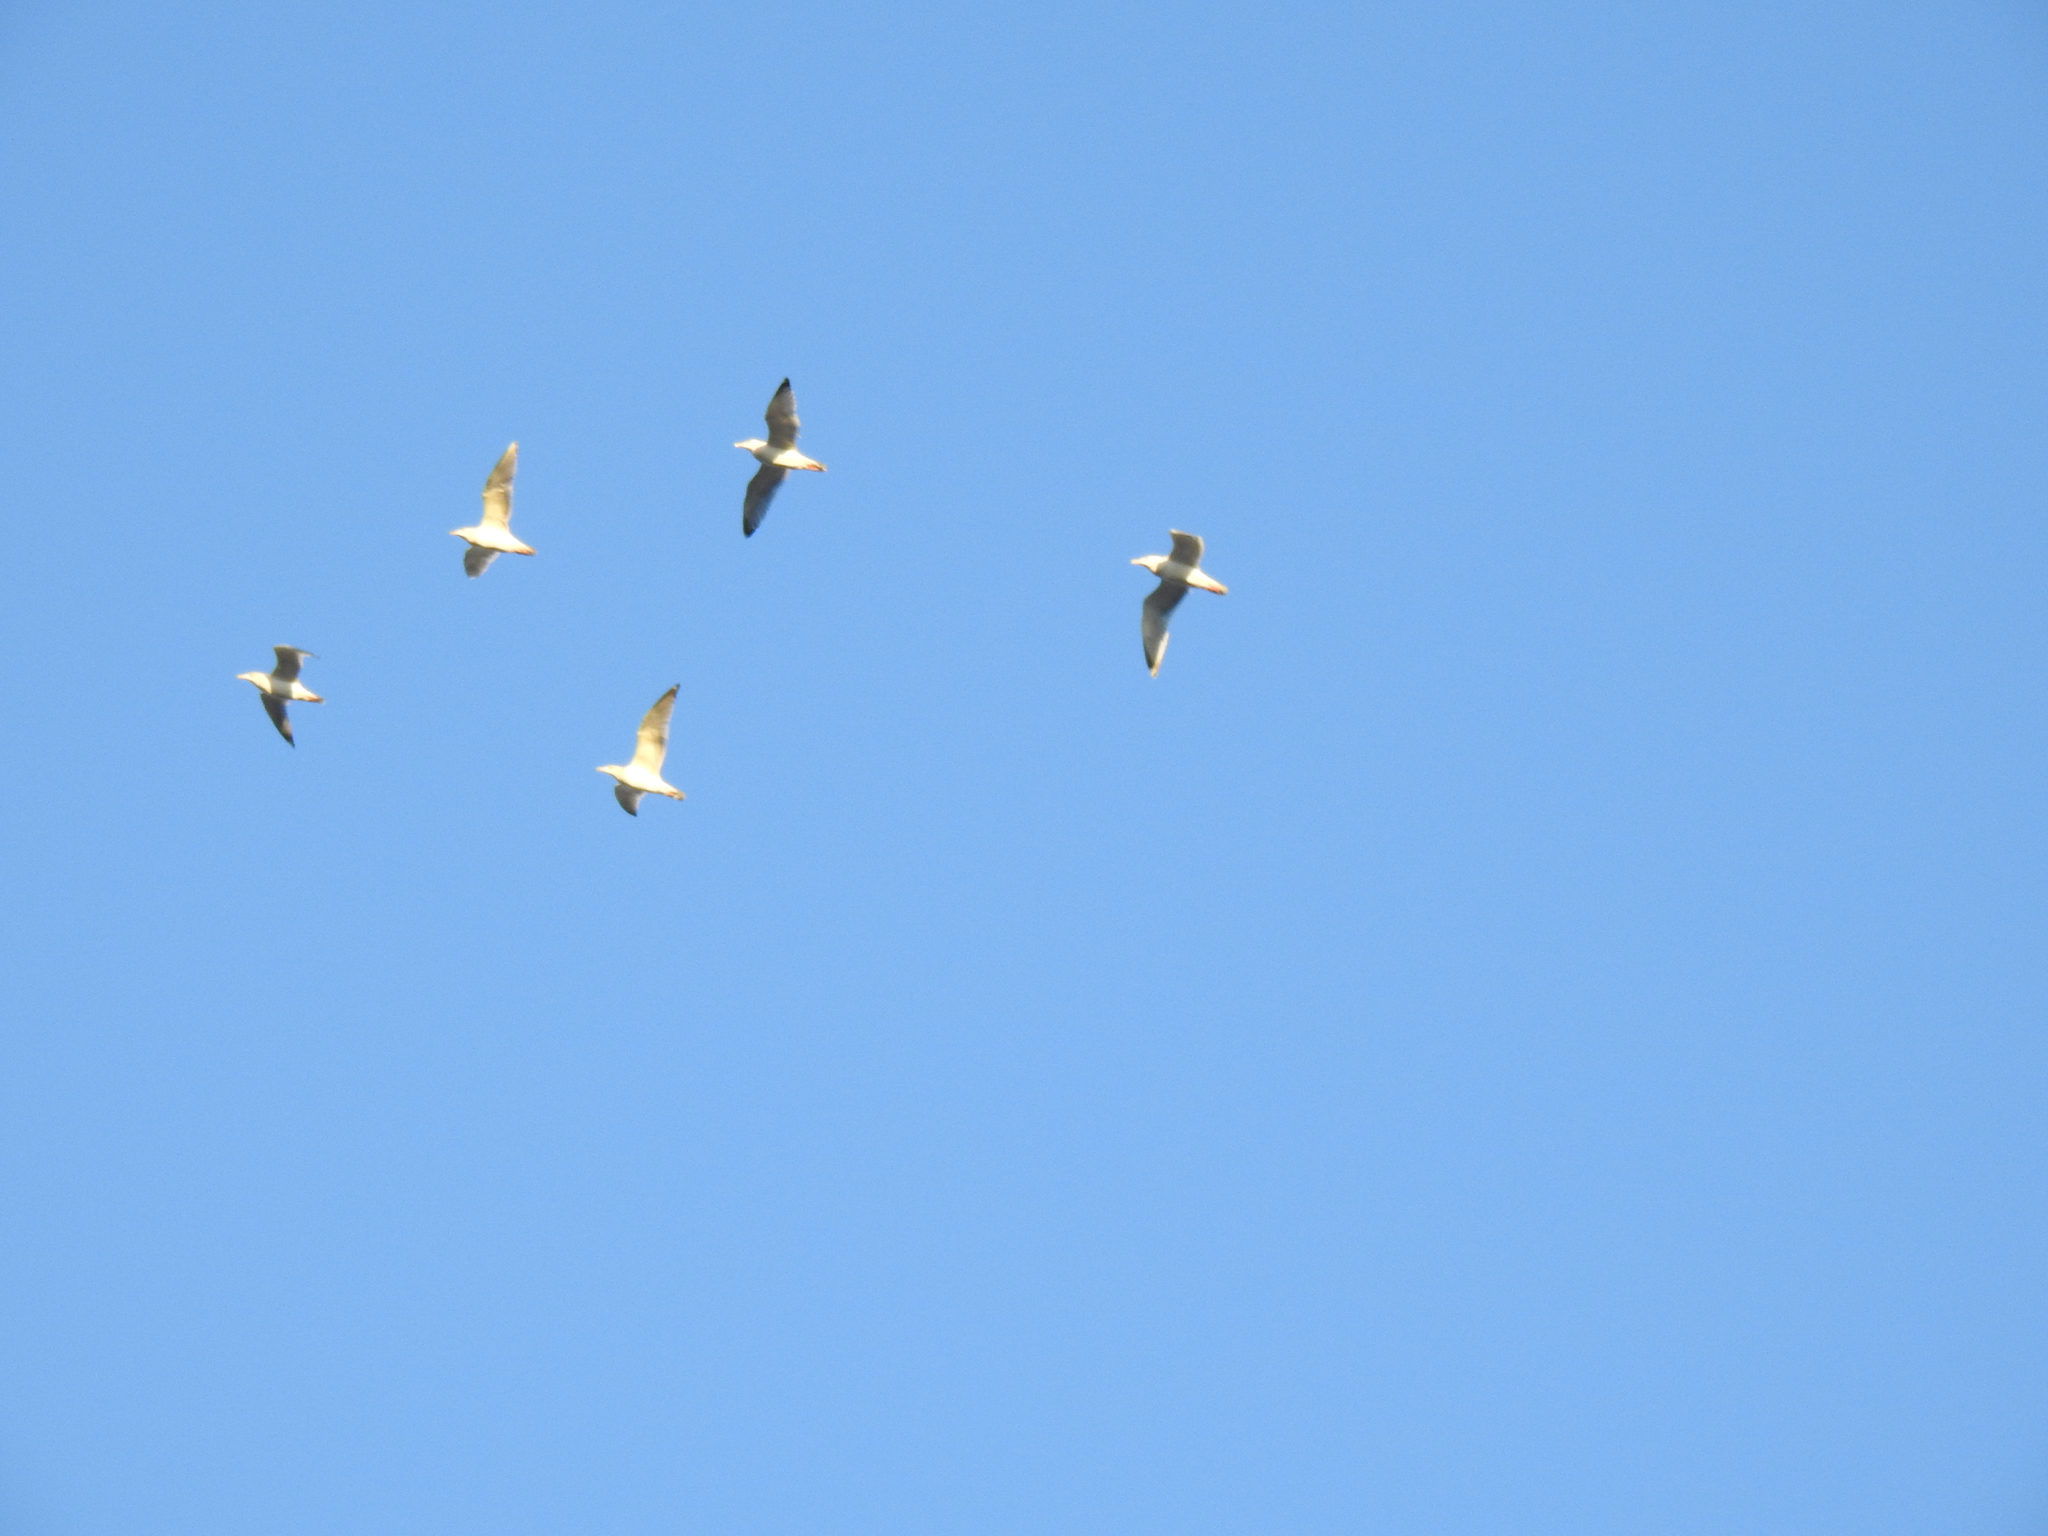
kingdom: Animalia
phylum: Chordata
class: Aves
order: Charadriiformes
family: Laridae
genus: Larus
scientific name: Larus
